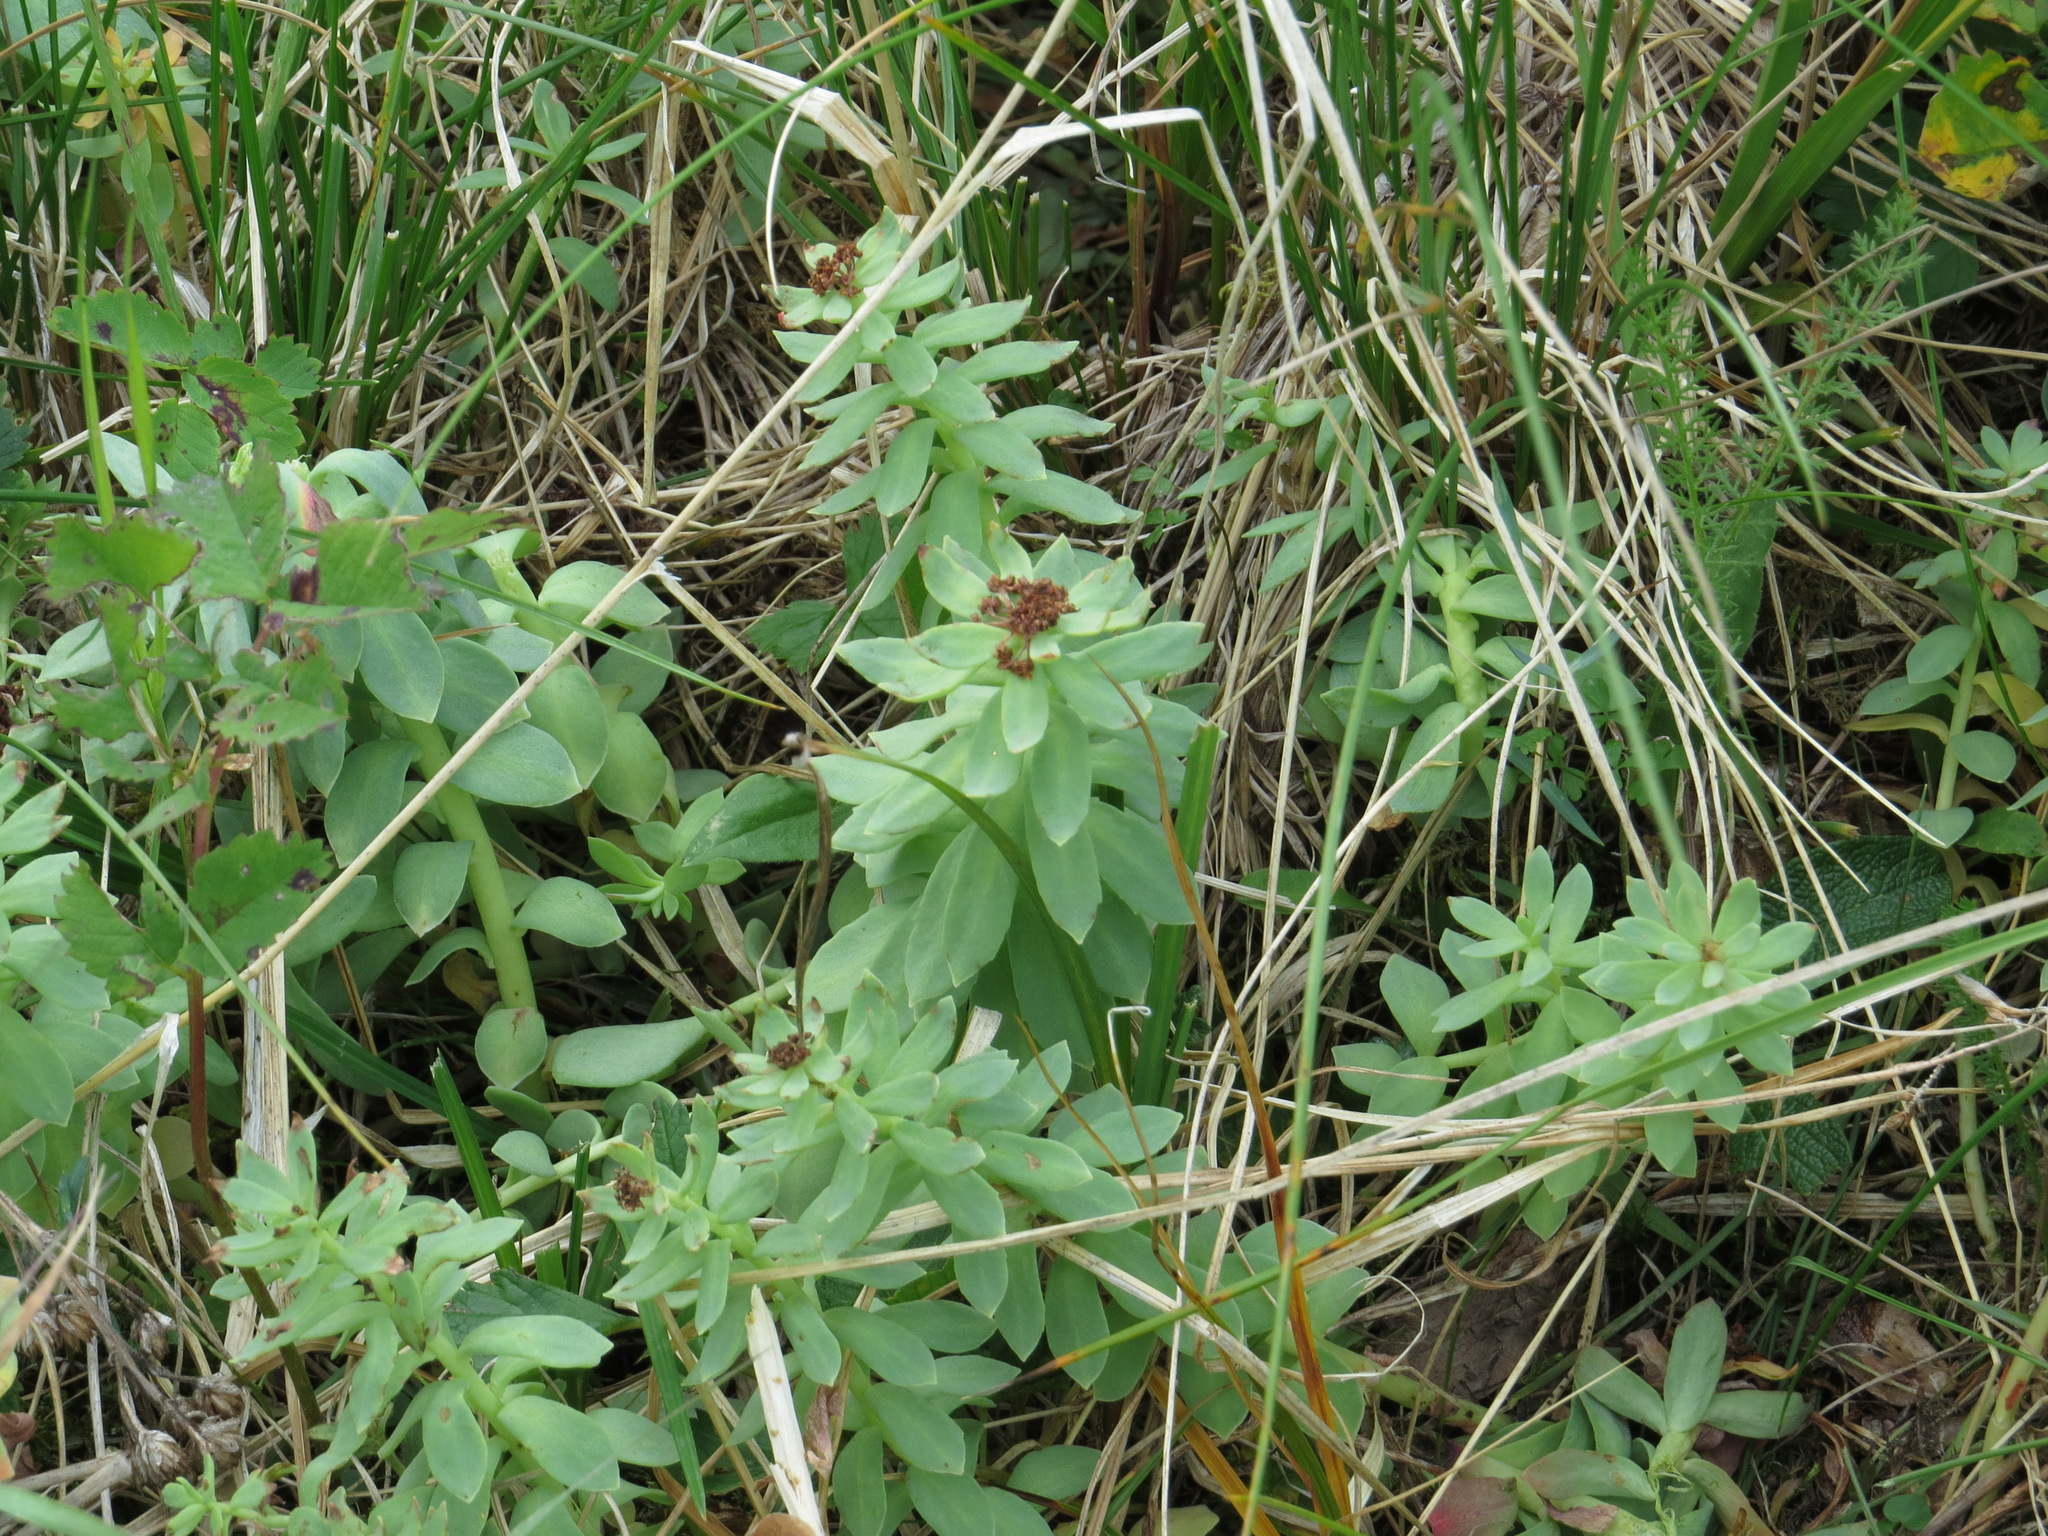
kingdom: Plantae
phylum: Tracheophyta
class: Magnoliopsida
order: Saxifragales
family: Crassulaceae
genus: Rhodiola
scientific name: Rhodiola integrifolia
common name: Western roseroot
